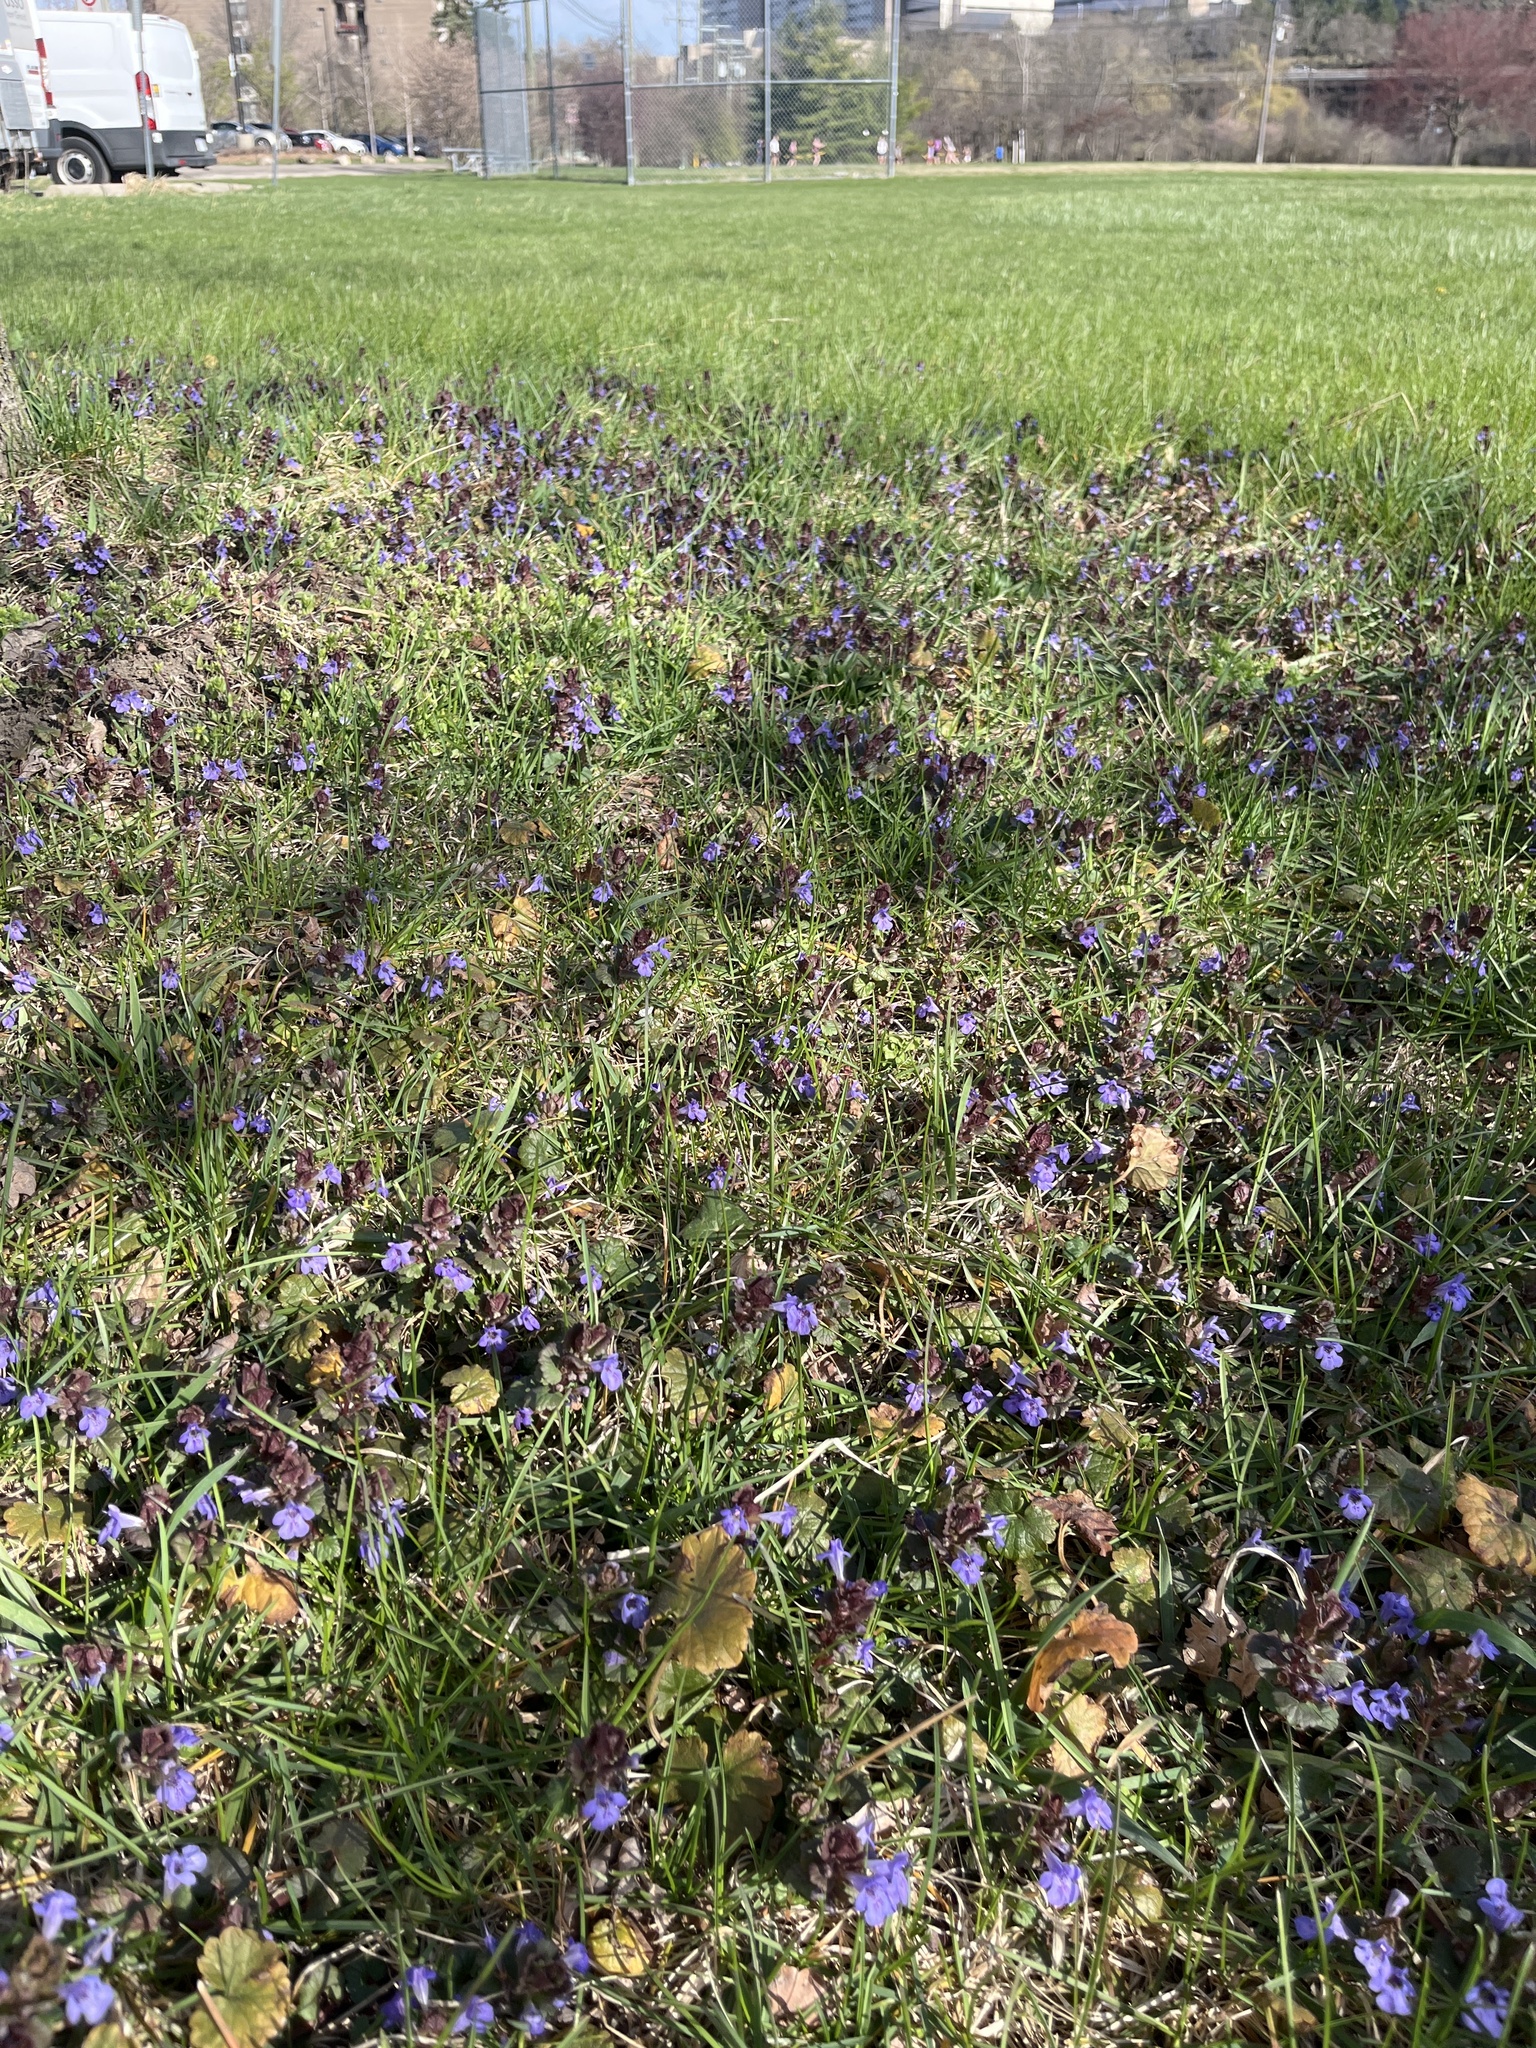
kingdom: Plantae
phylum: Tracheophyta
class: Magnoliopsida
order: Lamiales
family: Lamiaceae
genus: Glechoma
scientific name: Glechoma hederacea
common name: Ground ivy
